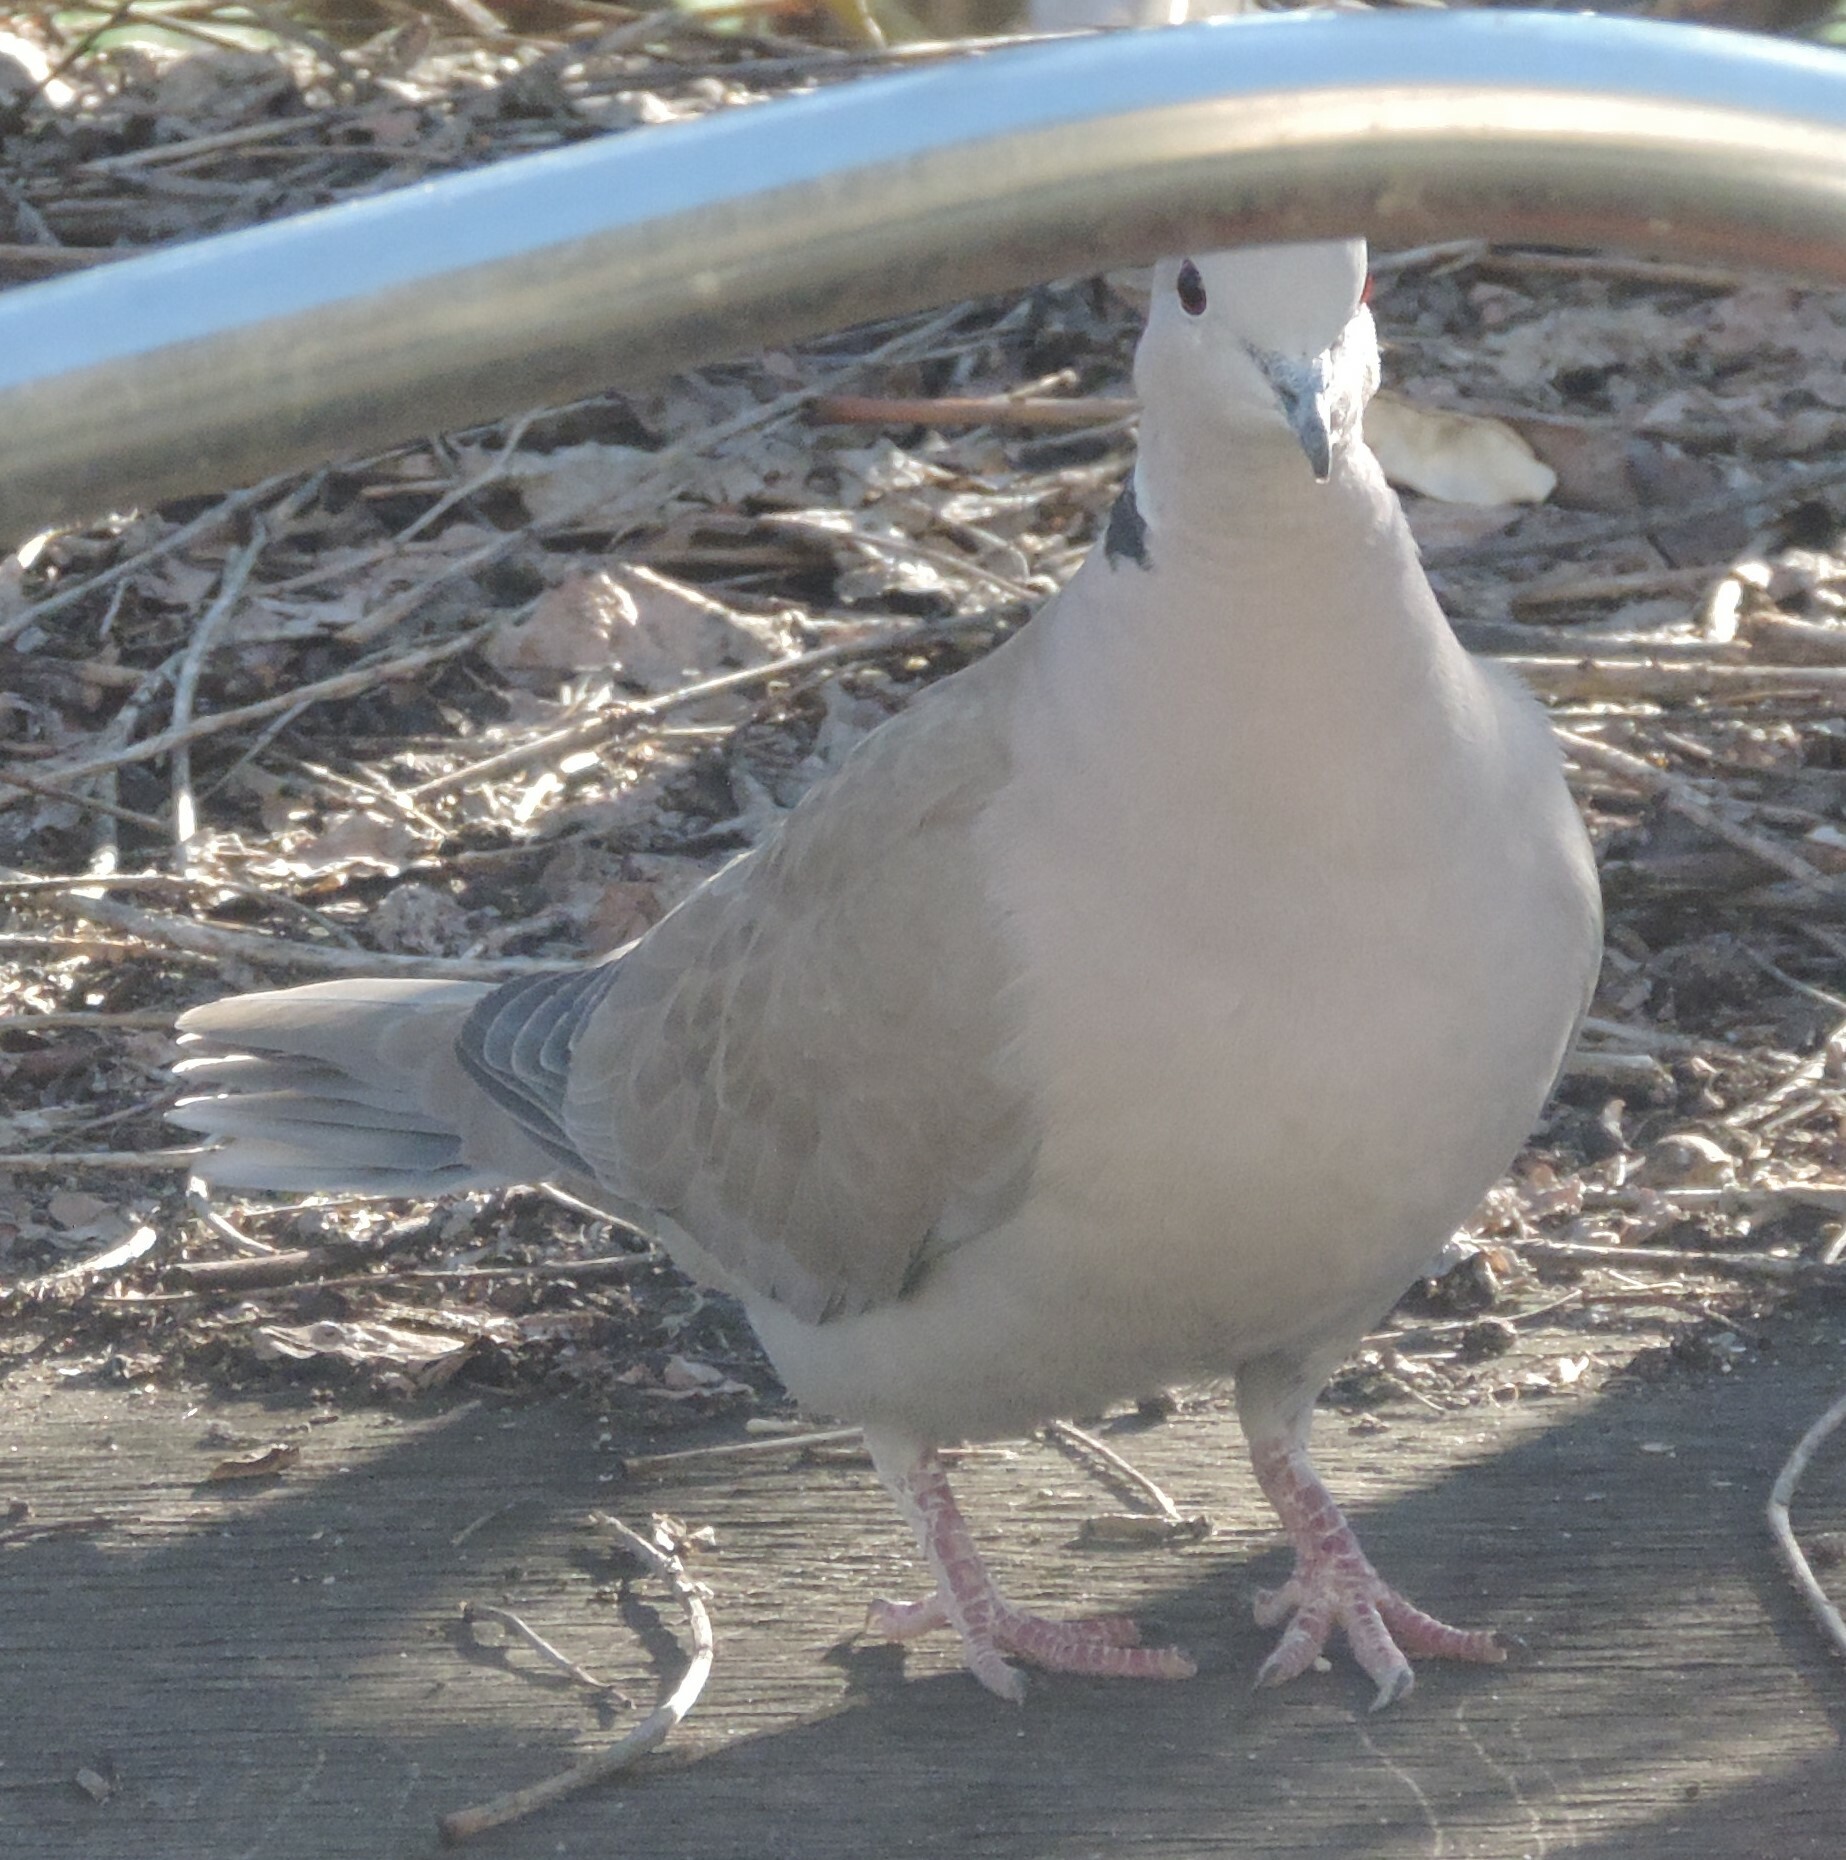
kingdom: Animalia
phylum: Chordata
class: Aves
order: Columbiformes
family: Columbidae
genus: Streptopelia
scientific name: Streptopelia decaocto
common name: Eurasian collared dove
